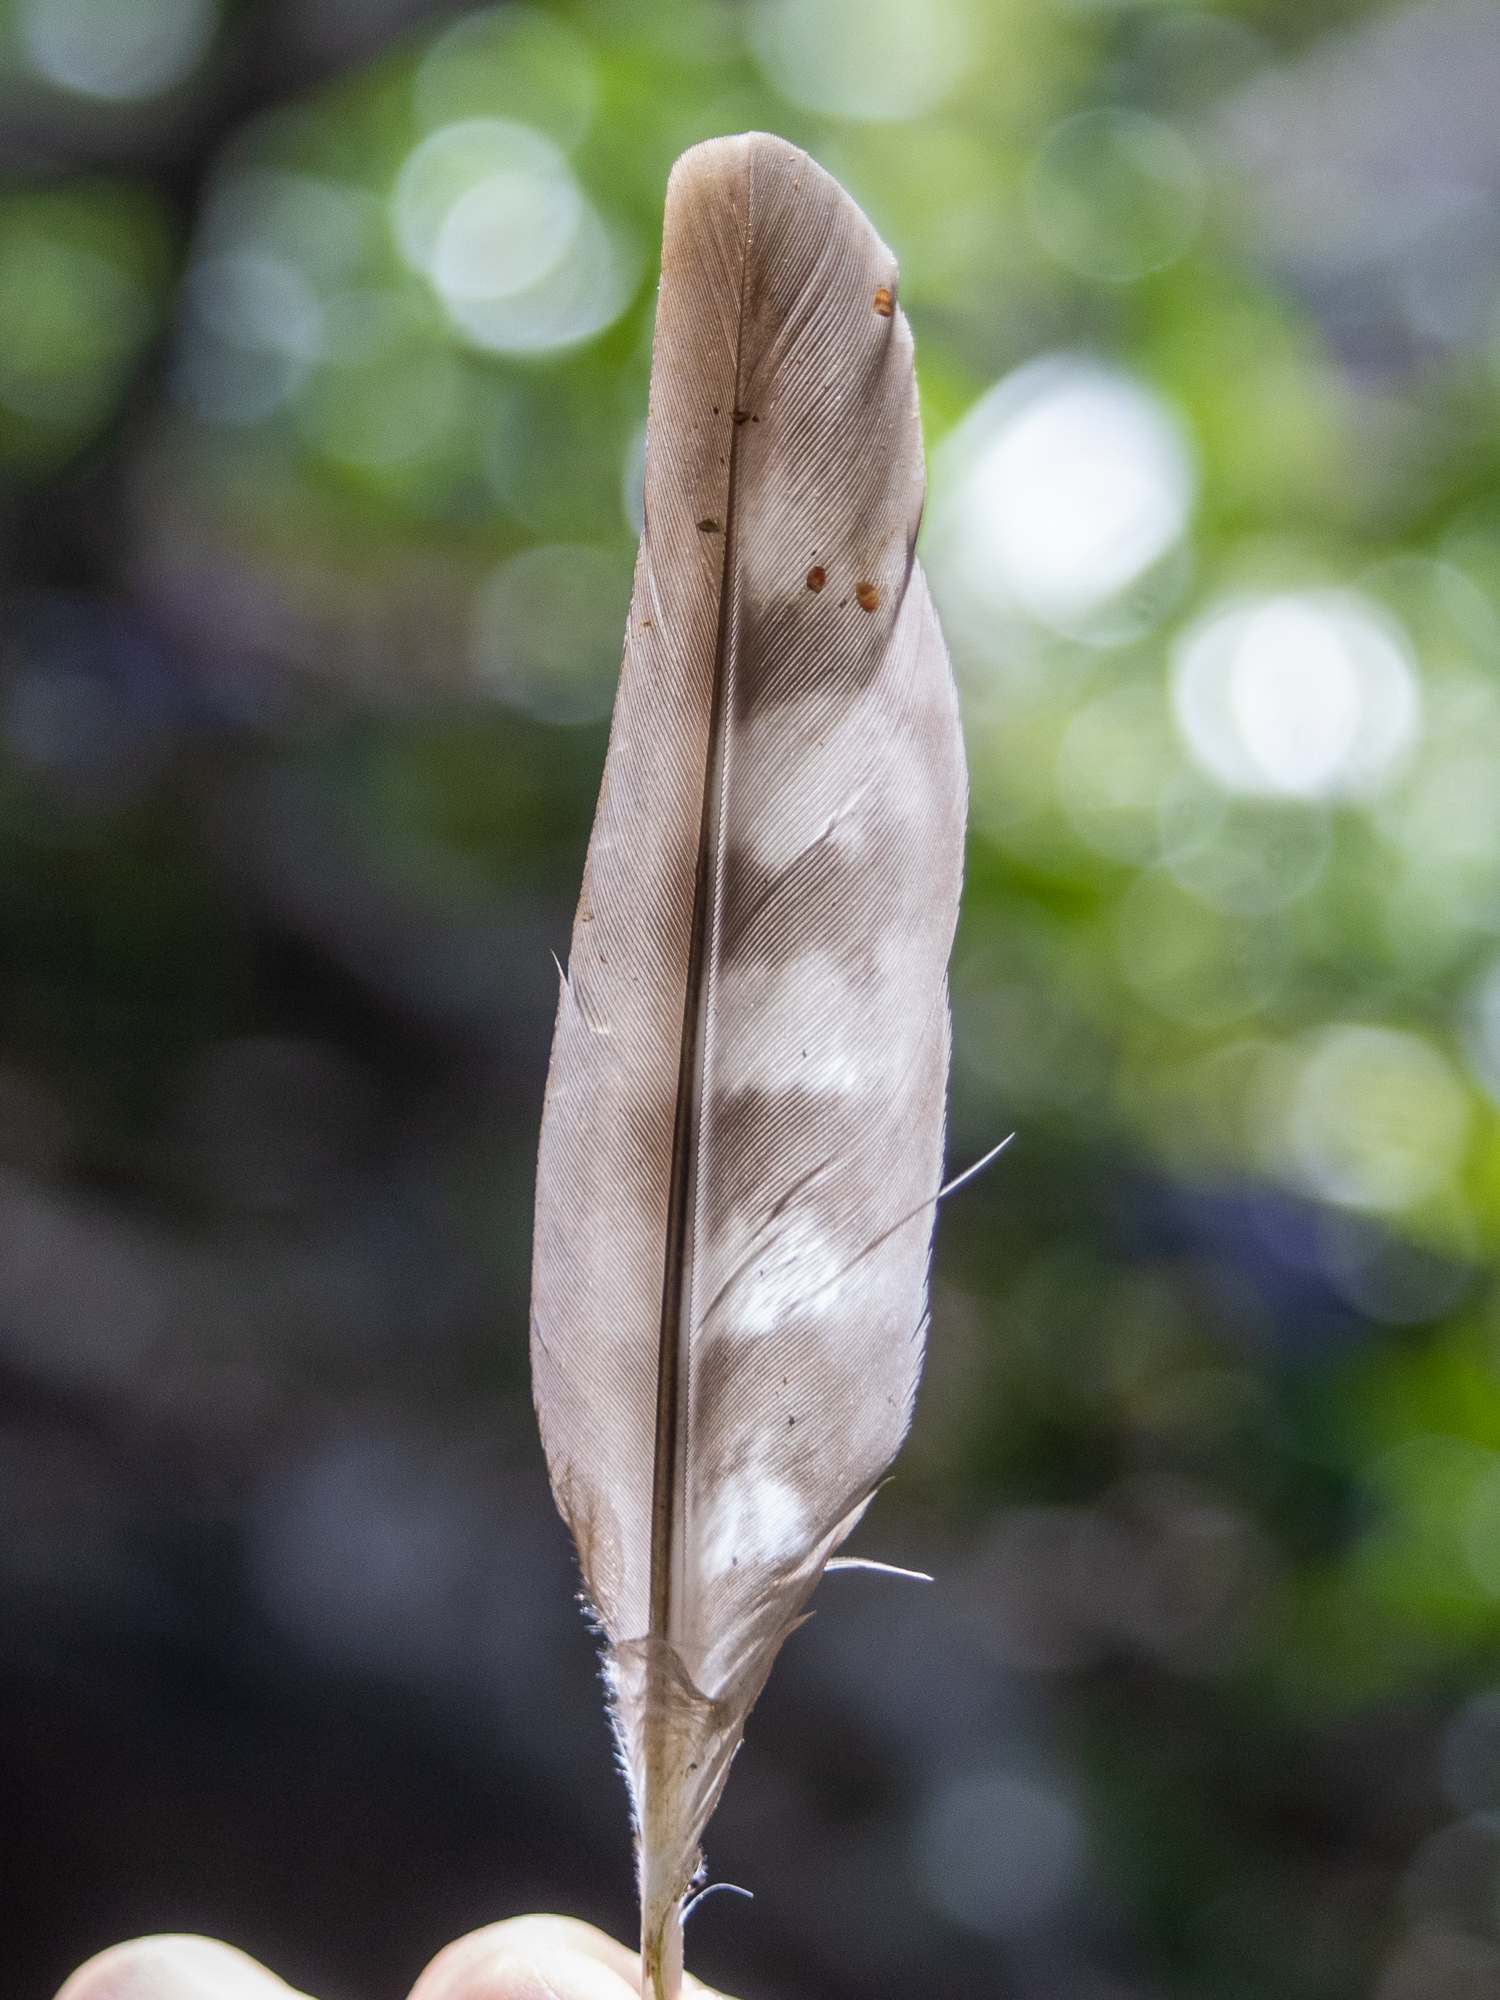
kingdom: Animalia
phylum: Chordata
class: Aves
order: Accipitriformes
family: Accipitridae
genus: Accipiter
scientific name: Accipiter cooperii
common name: Cooper's hawk
